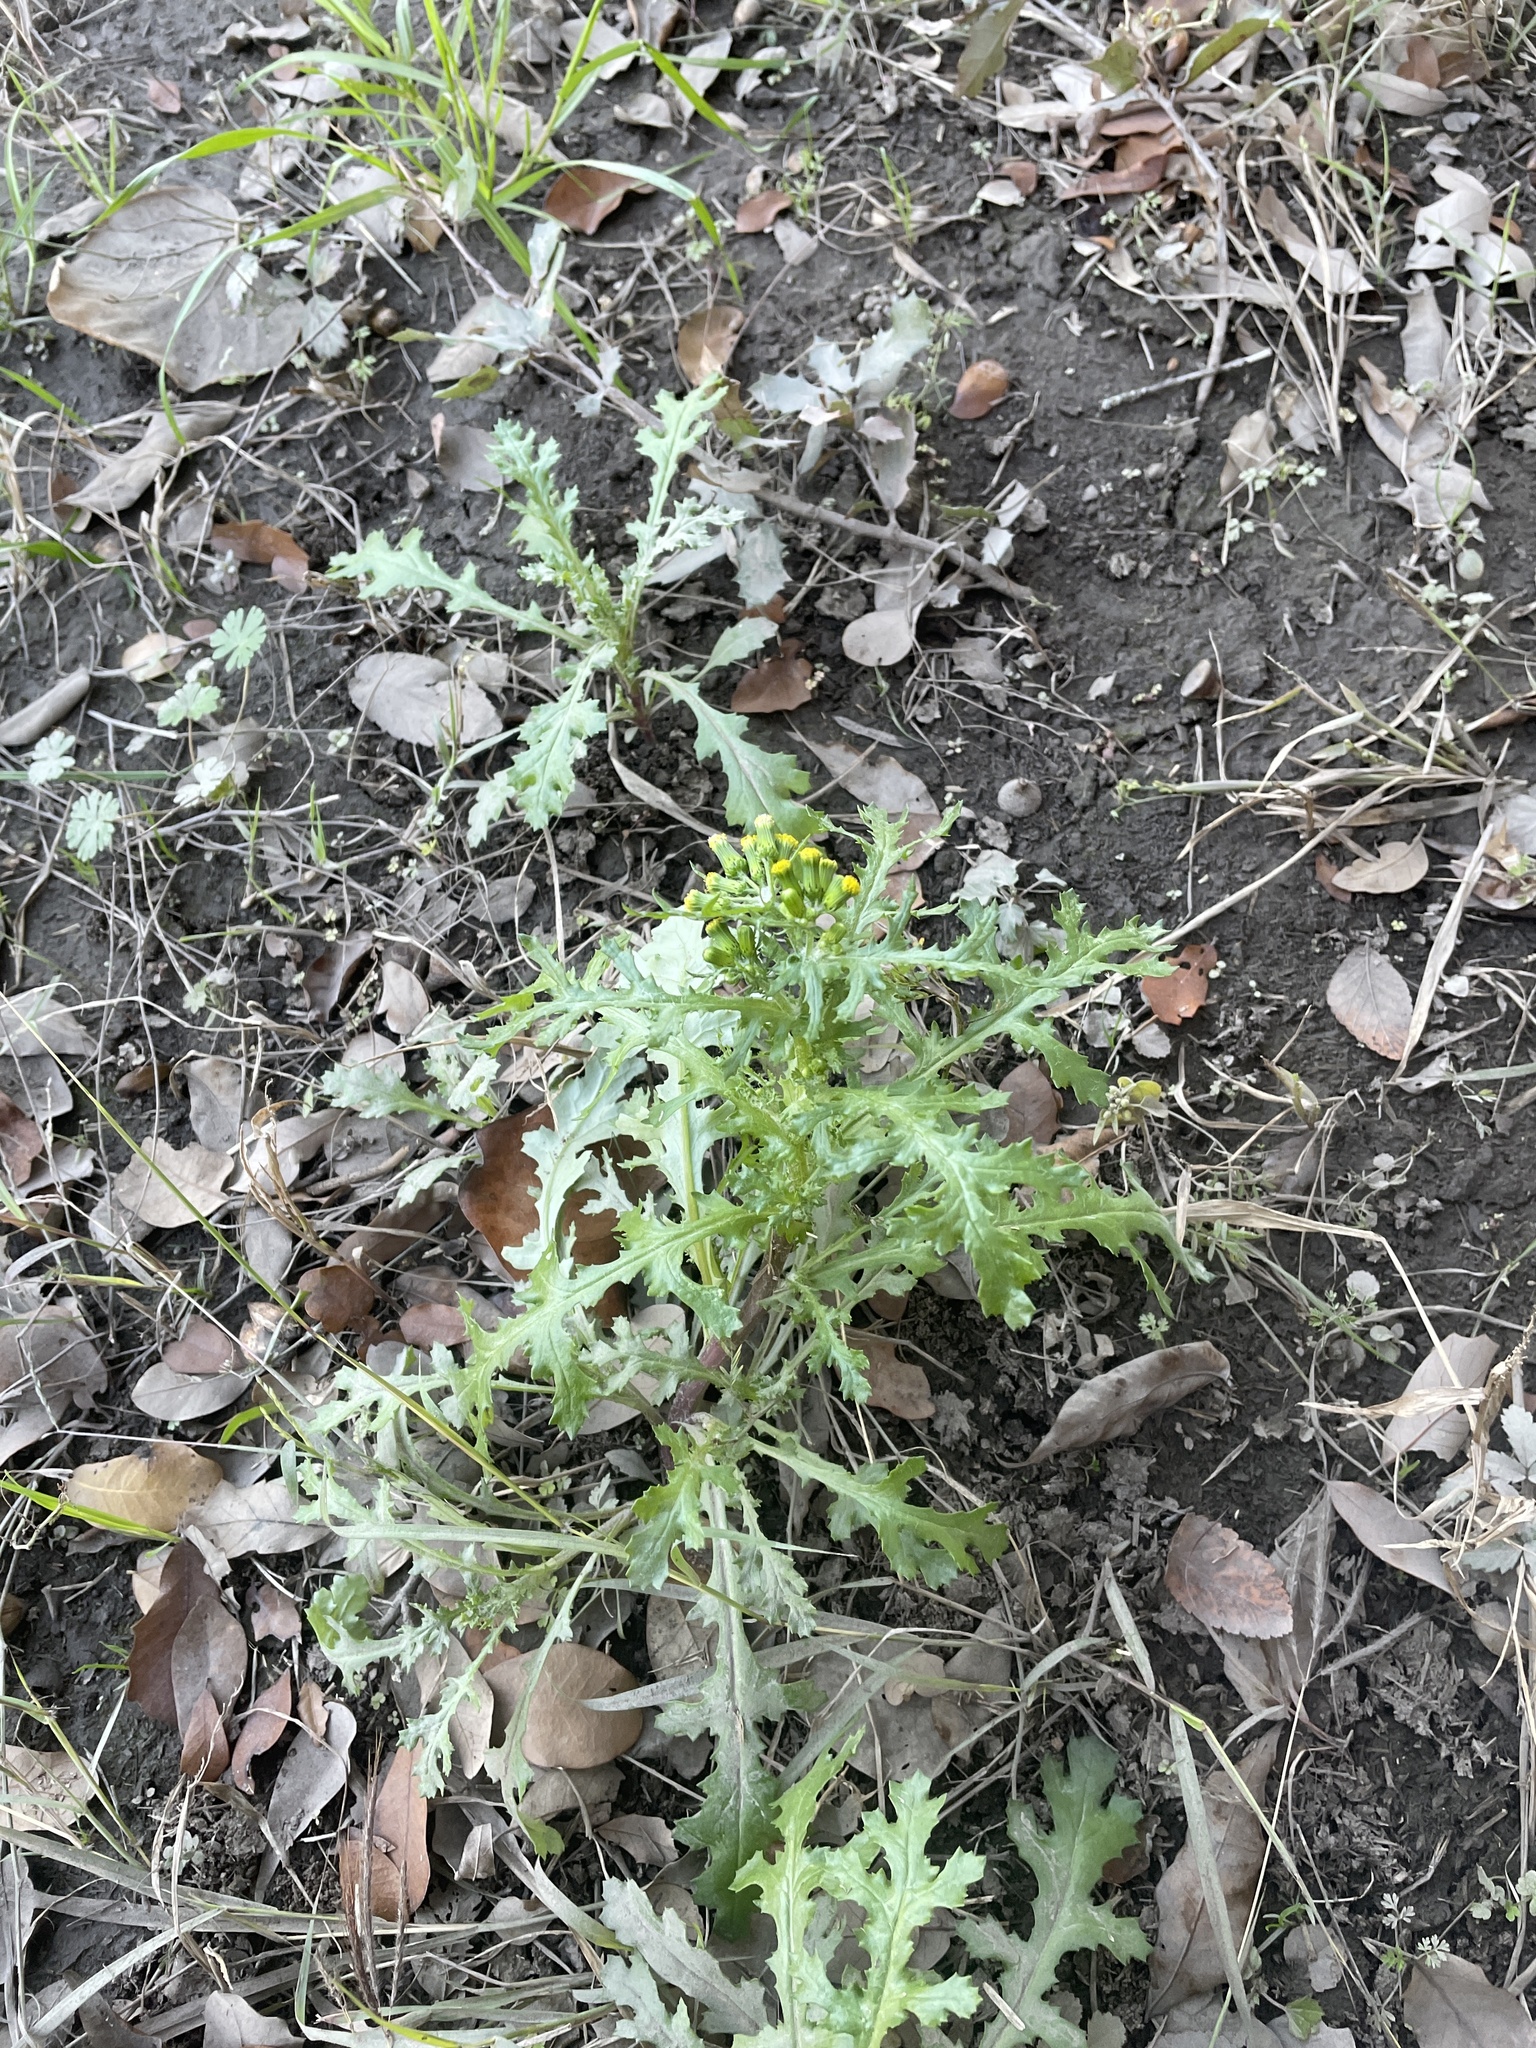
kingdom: Plantae
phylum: Tracheophyta
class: Magnoliopsida
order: Asterales
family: Asteraceae
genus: Senecio
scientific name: Senecio vulgaris
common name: Old-man-in-the-spring
